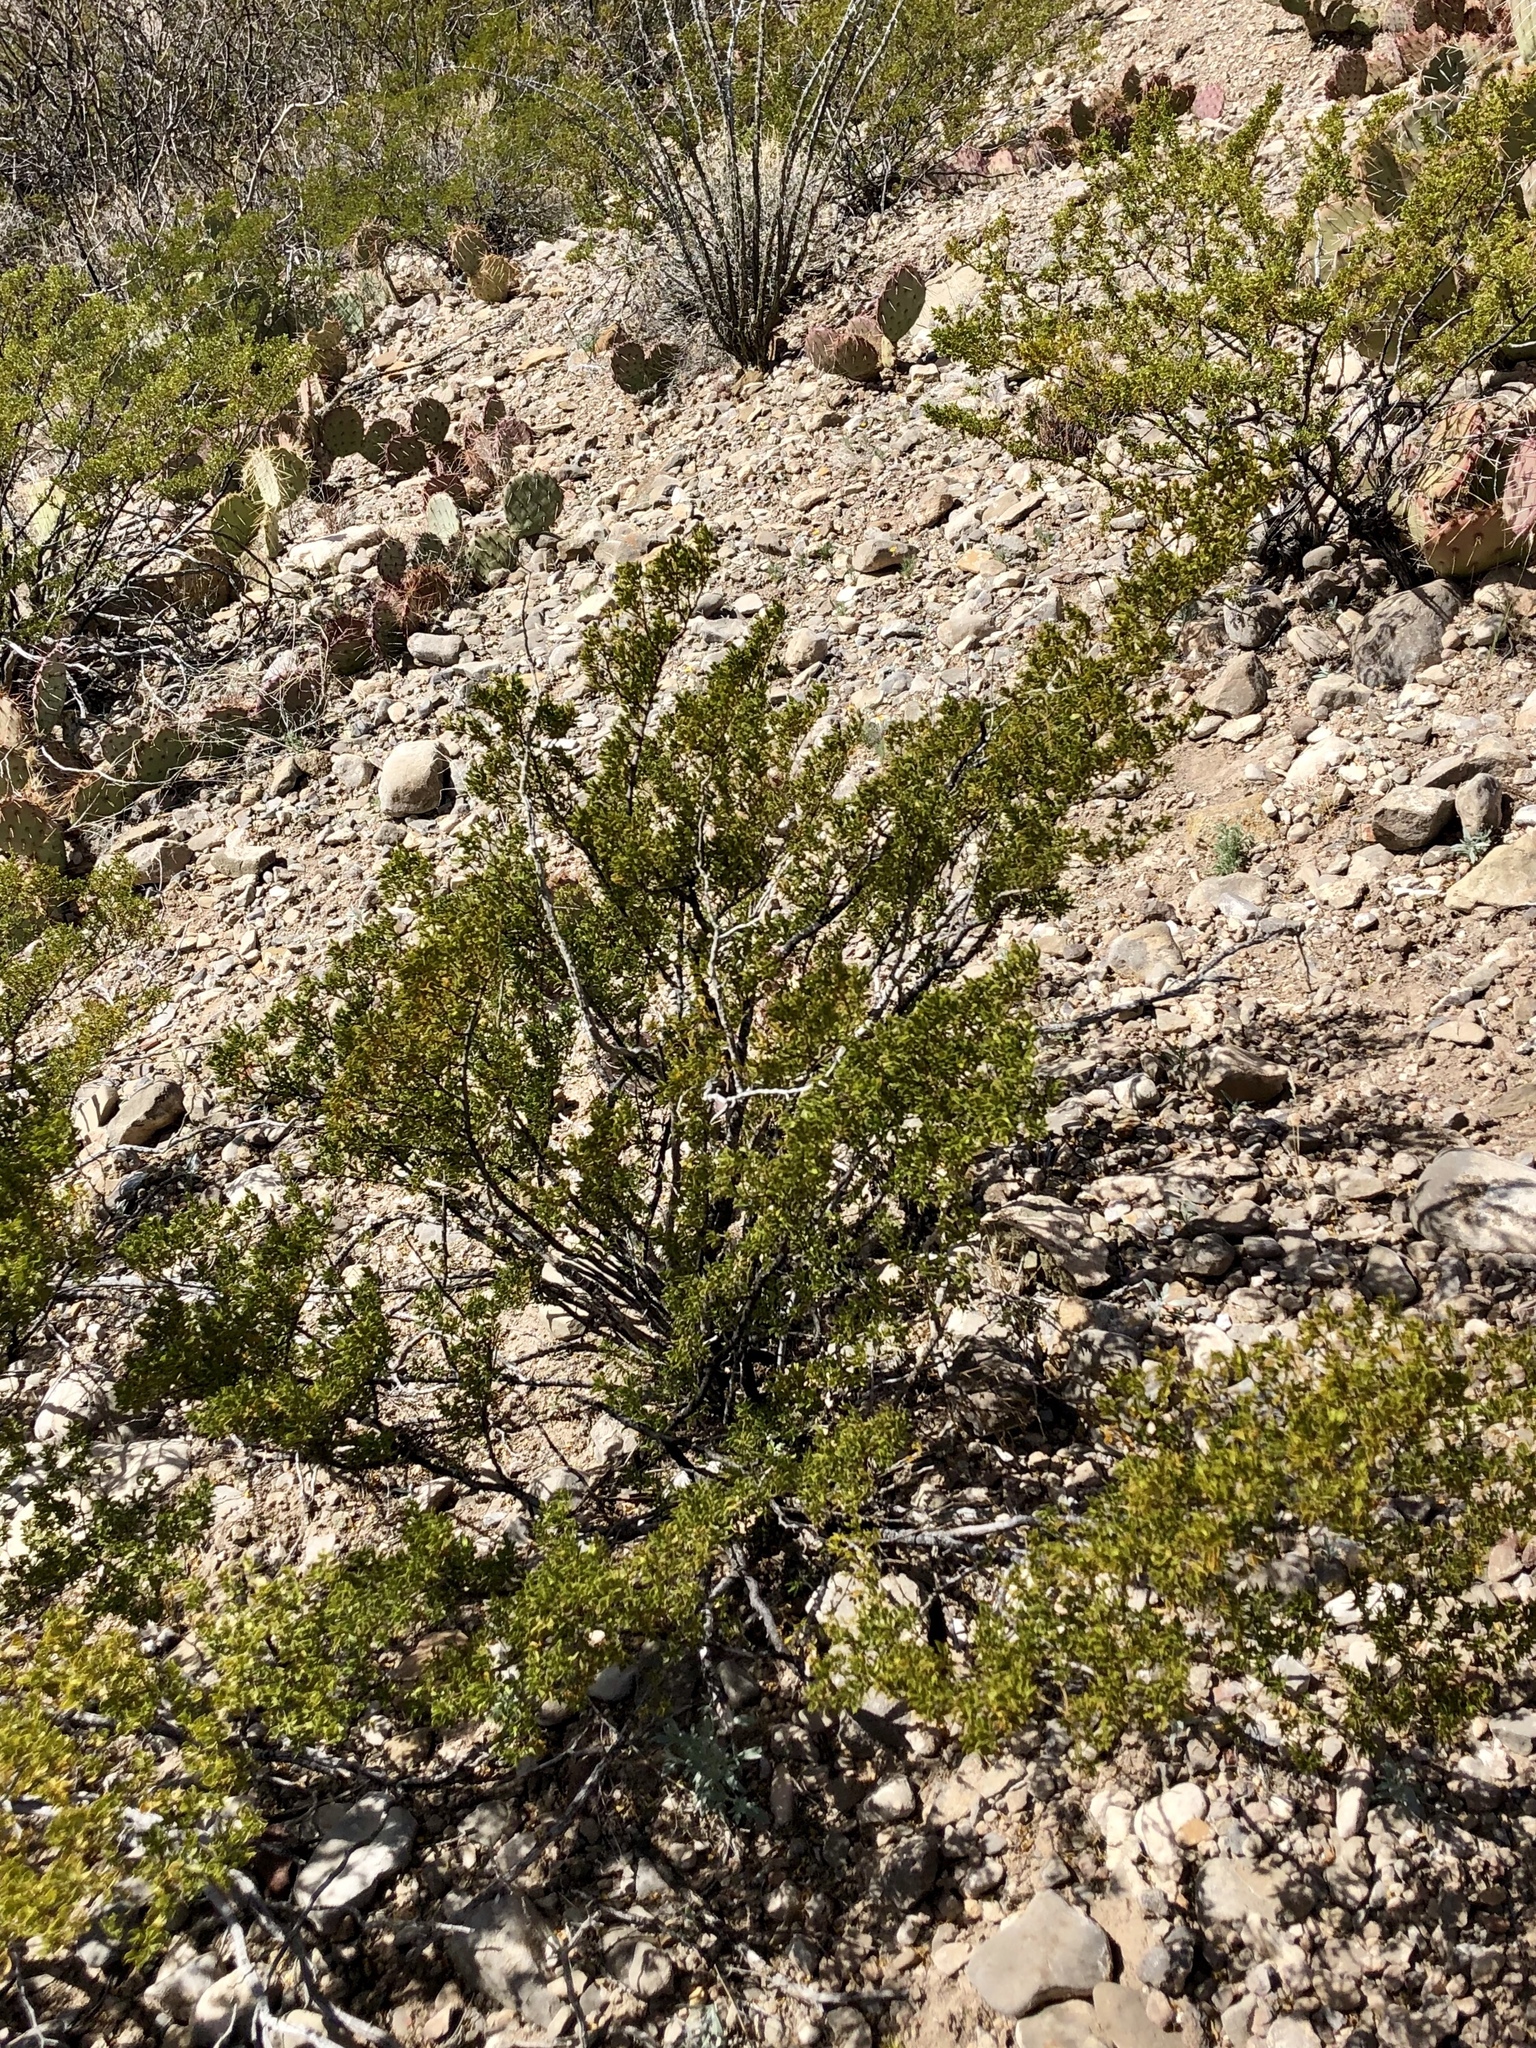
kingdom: Plantae
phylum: Tracheophyta
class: Magnoliopsida
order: Zygophyllales
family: Zygophyllaceae
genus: Larrea
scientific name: Larrea tridentata
